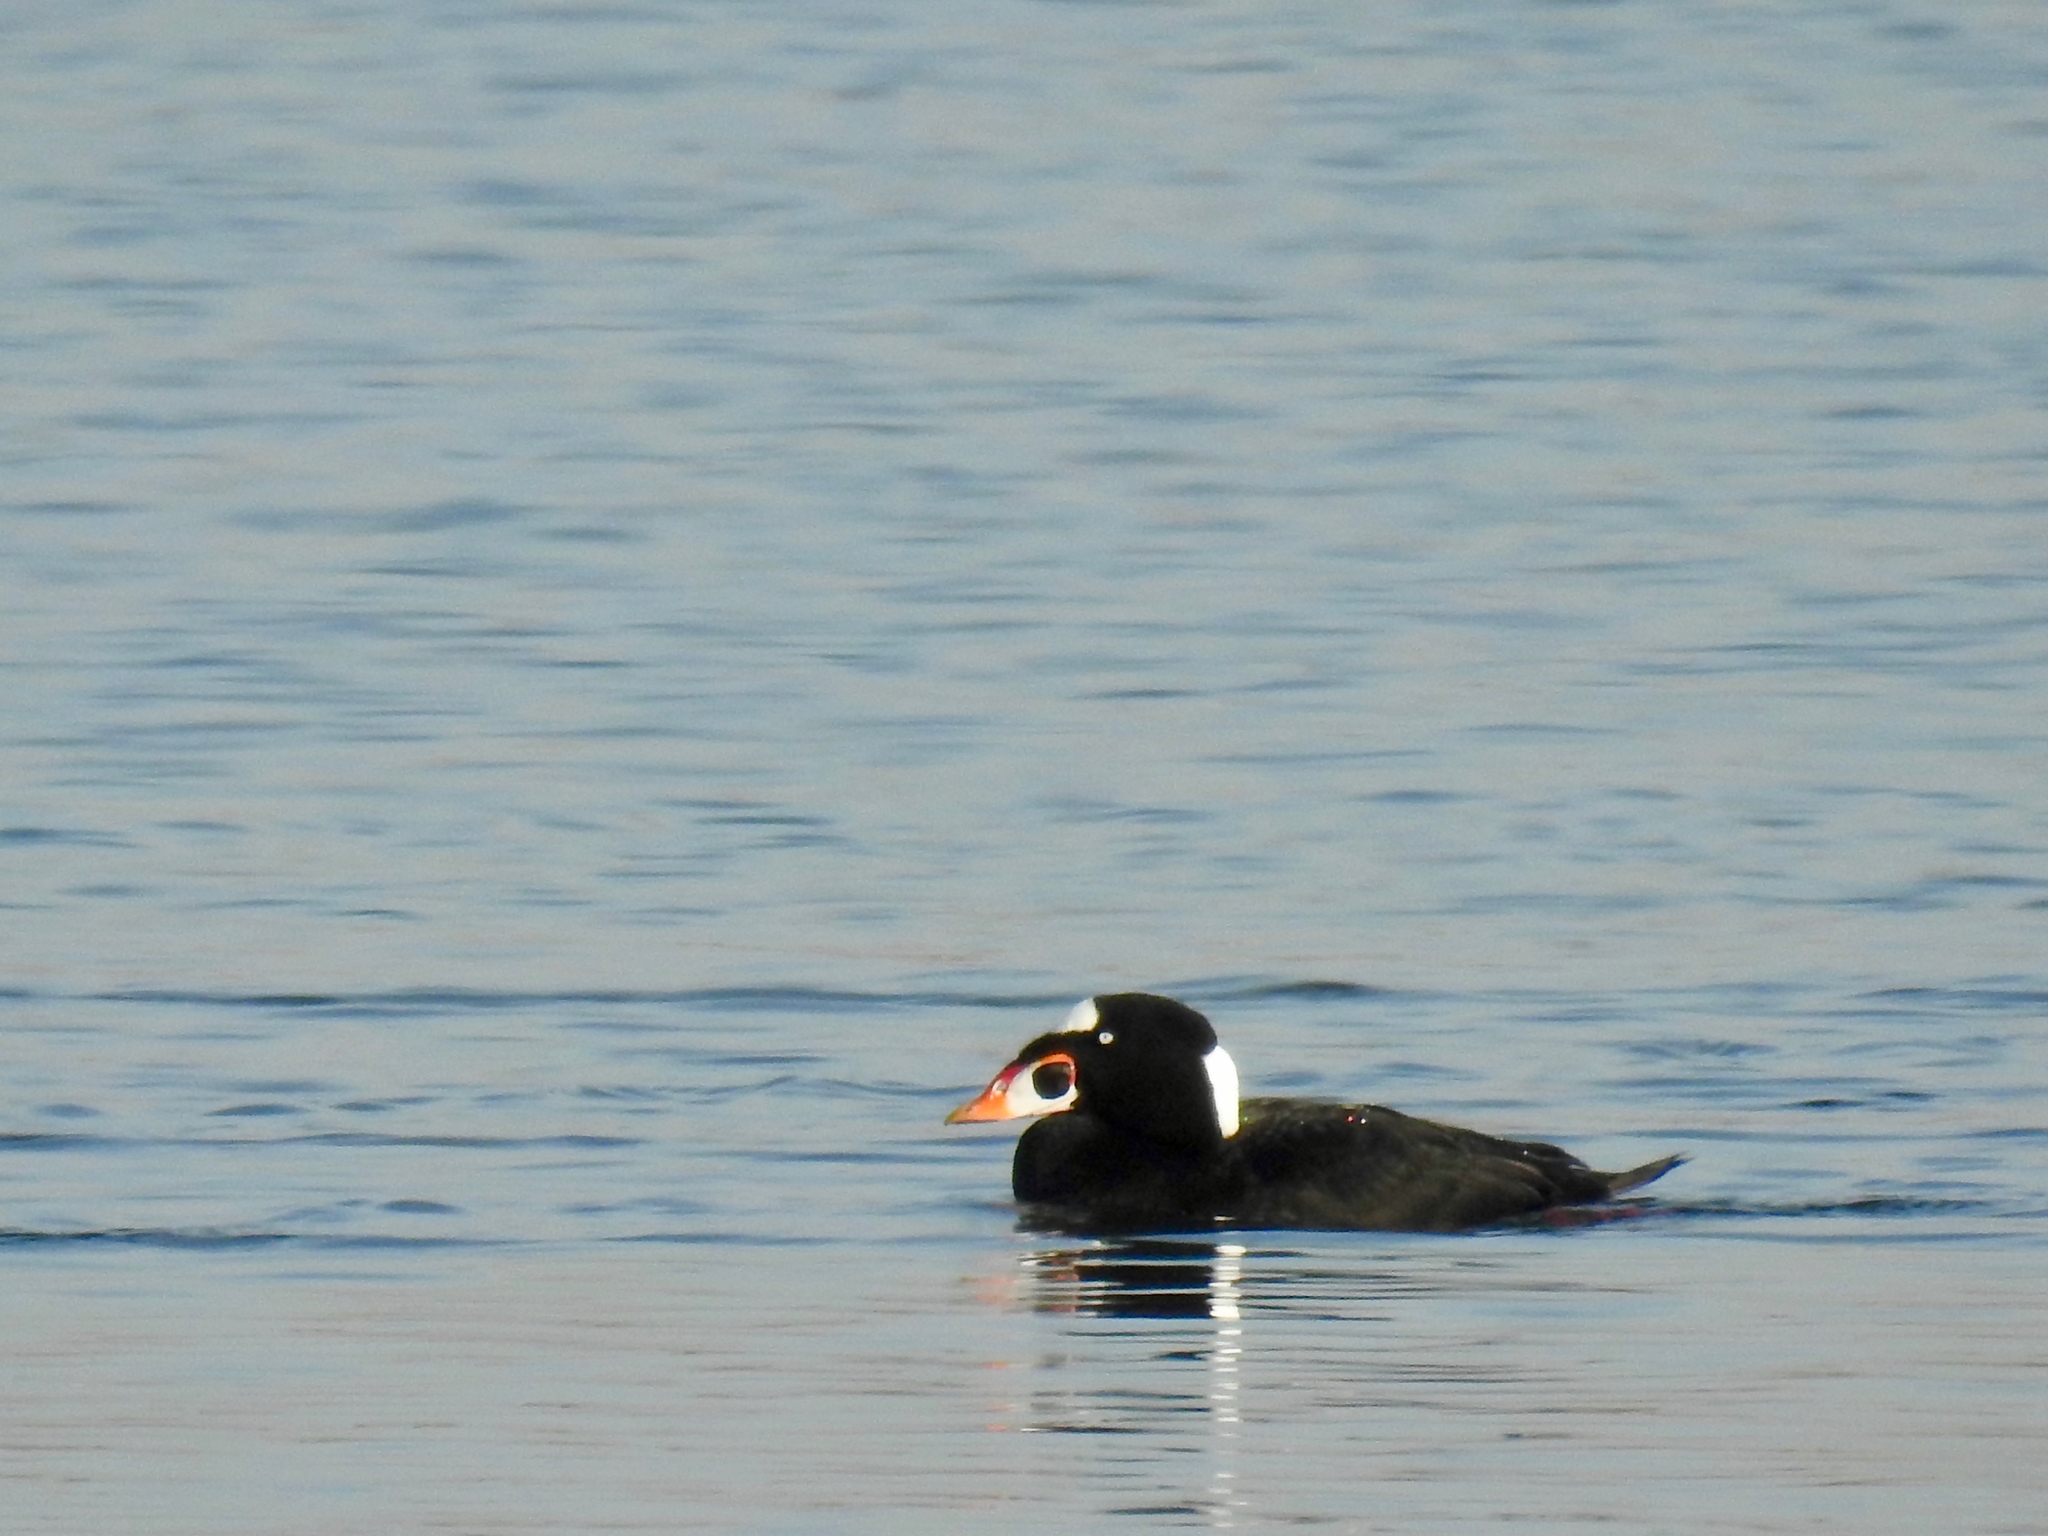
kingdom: Animalia
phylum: Chordata
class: Aves
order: Anseriformes
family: Anatidae
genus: Melanitta
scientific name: Melanitta perspicillata
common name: Surf scoter
